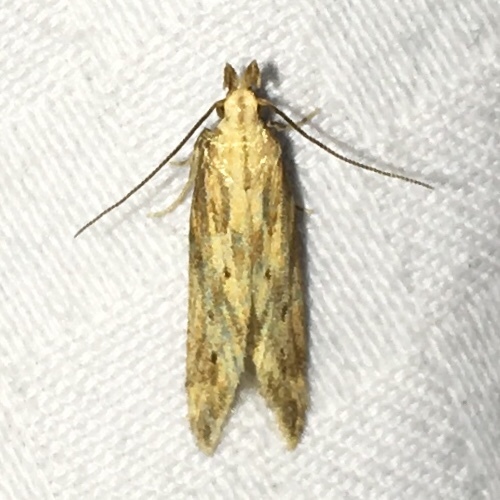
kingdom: Animalia
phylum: Arthropoda
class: Insecta
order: Lepidoptera
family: Gelechiidae
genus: Metzneria
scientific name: Metzneria lappella
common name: Burdock neb
